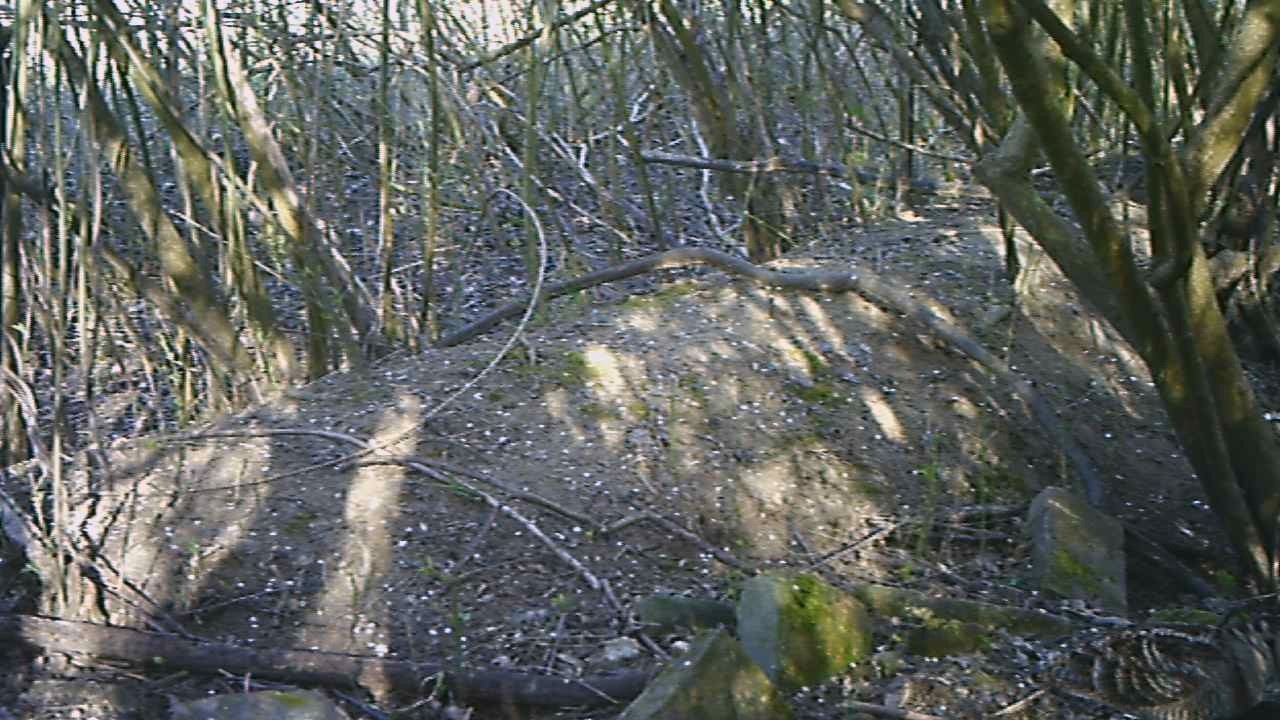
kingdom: Animalia
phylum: Chordata
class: Aves
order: Charadriiformes
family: Scolopacidae
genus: Scolopax
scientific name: Scolopax rusticola
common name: Eurasian woodcock
